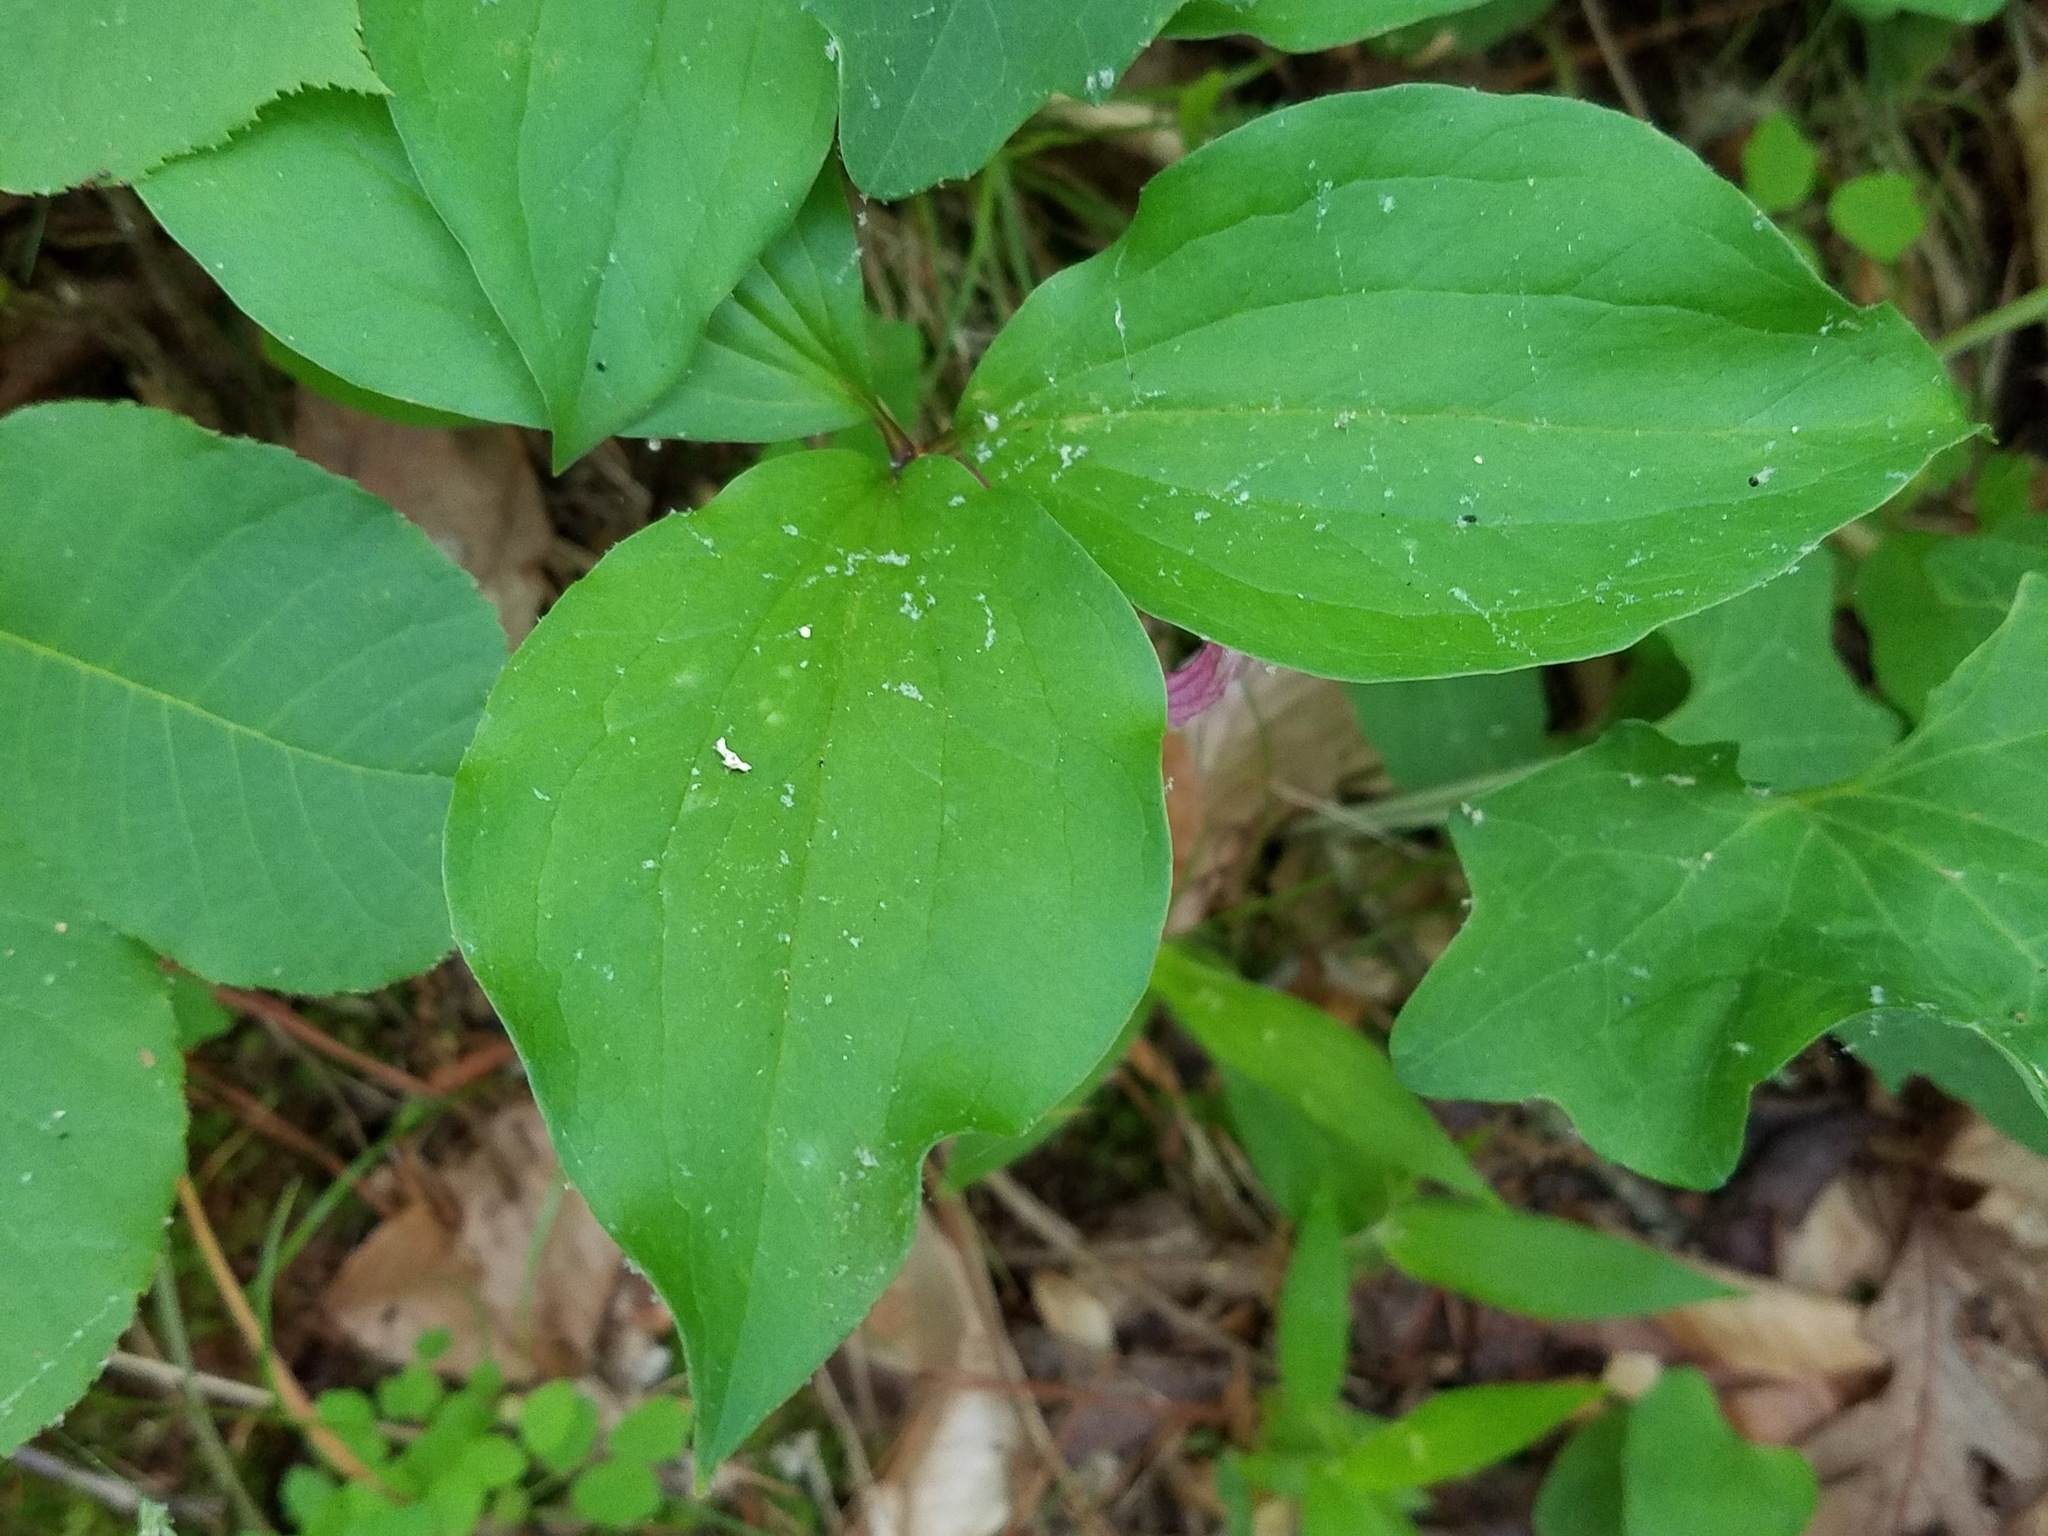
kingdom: Plantae
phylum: Tracheophyta
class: Liliopsida
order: Liliales
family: Melanthiaceae
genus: Trillium
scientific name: Trillium catesbaei
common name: Bashful trillium
